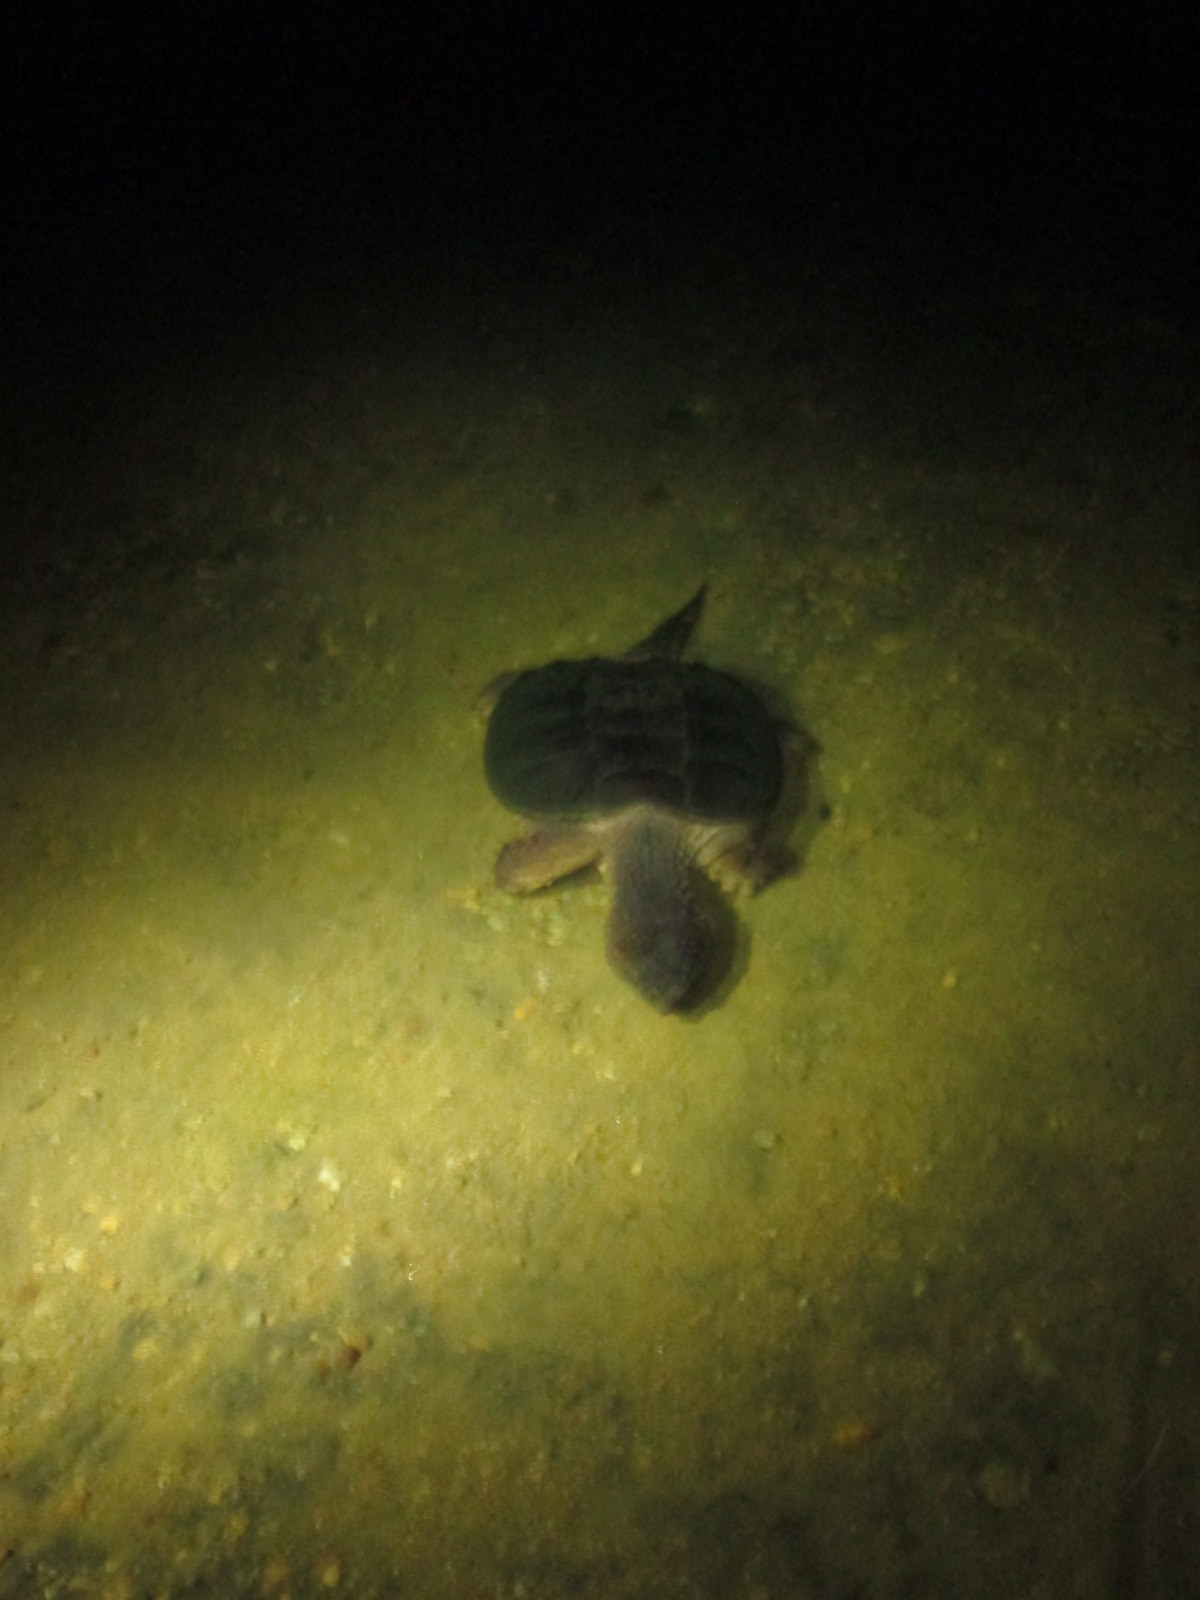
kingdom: Animalia
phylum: Chordata
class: Testudines
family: Chelydridae
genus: Chelydra
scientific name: Chelydra serpentina
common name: Common snapping turtle
